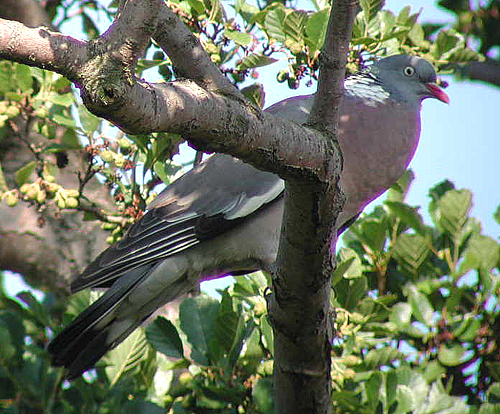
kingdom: Animalia
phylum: Chordata
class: Aves
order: Columbiformes
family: Columbidae
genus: Columba
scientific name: Columba palumbus
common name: Common wood pigeon
